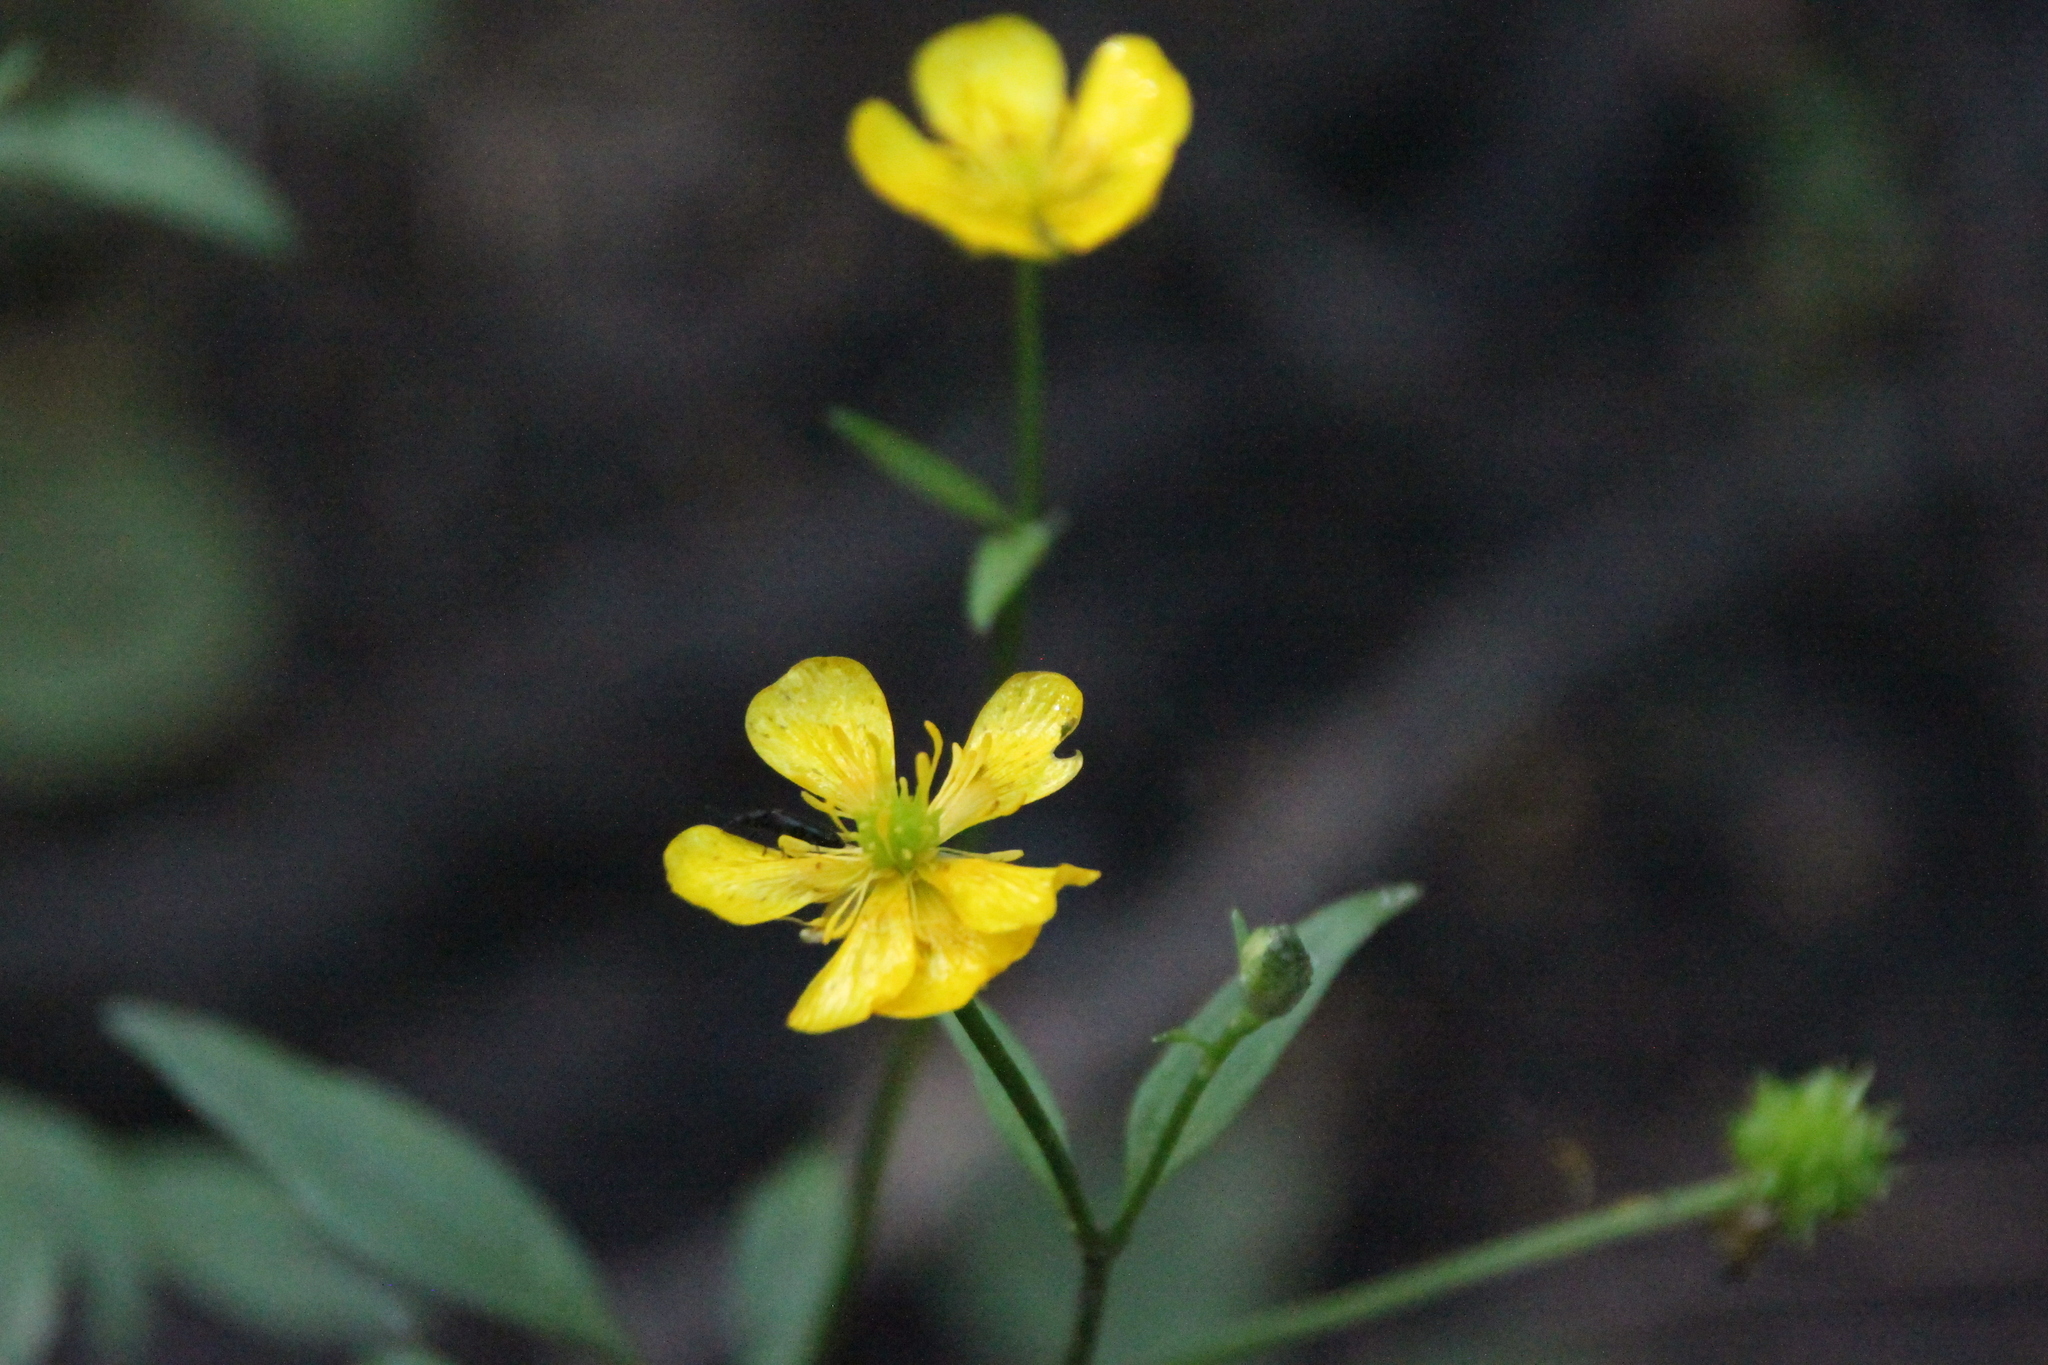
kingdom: Plantae
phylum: Tracheophyta
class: Magnoliopsida
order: Ranunculales
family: Ranunculaceae
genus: Ranunculus
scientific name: Ranunculus repens
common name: Creeping buttercup
